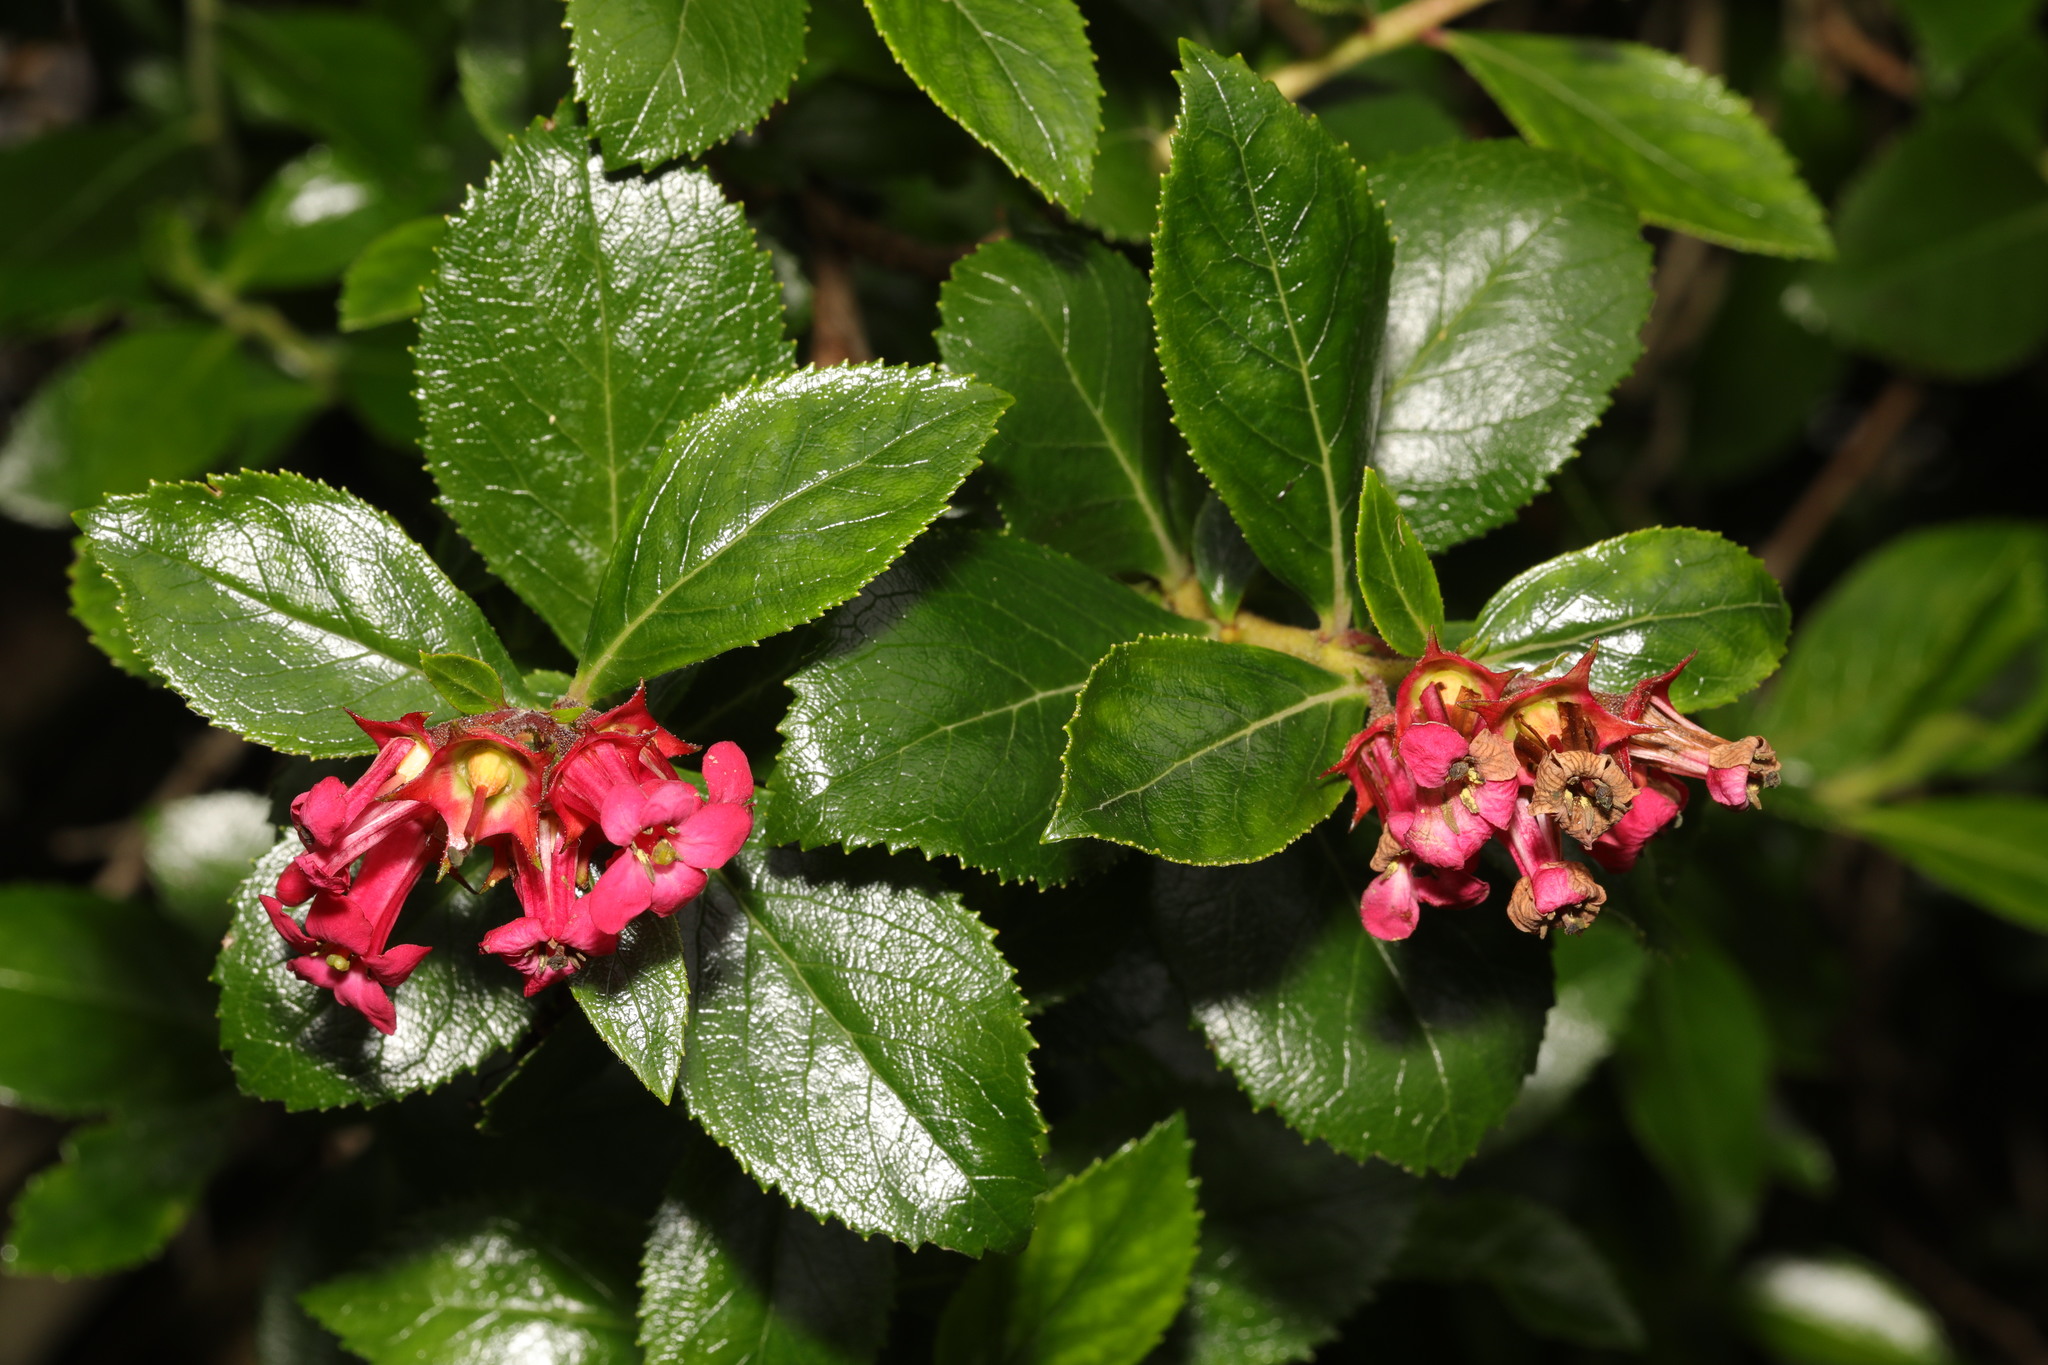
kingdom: Plantae
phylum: Tracheophyta
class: Magnoliopsida
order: Escalloniales
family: Escalloniaceae
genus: Escallonia
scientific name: Escallonia rubra
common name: Redclaws
